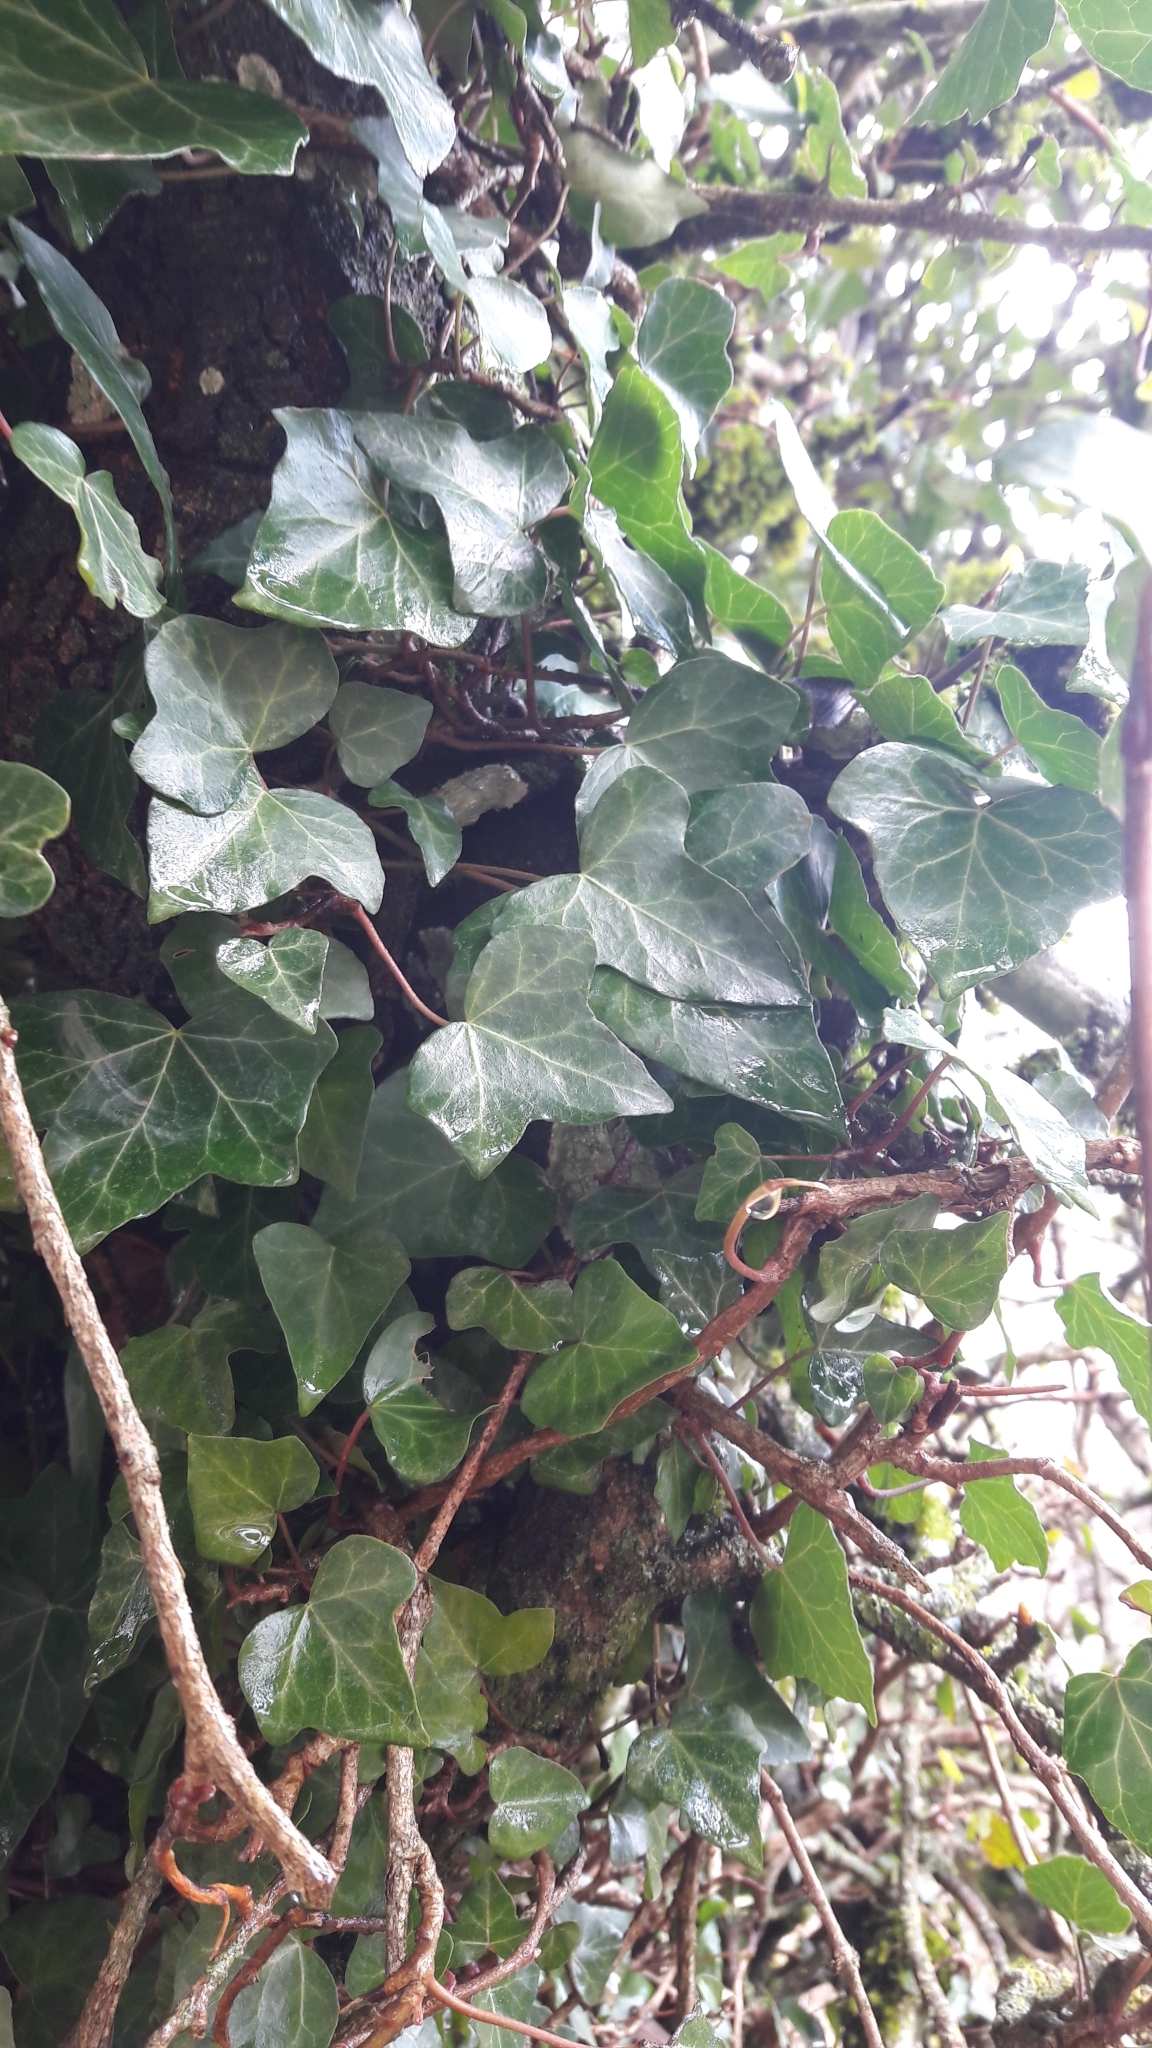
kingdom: Plantae
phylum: Tracheophyta
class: Magnoliopsida
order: Apiales
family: Araliaceae
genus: Hedera
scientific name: Hedera helix
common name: Ivy
